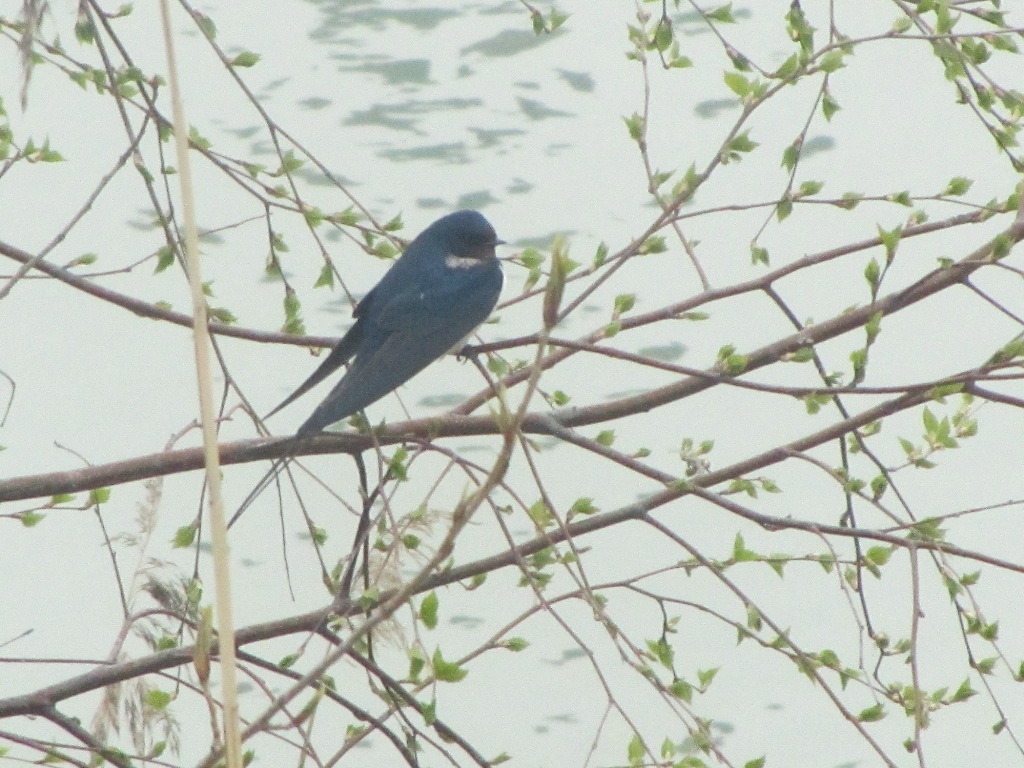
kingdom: Animalia
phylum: Chordata
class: Aves
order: Passeriformes
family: Hirundinidae
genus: Hirundo
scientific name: Hirundo rustica
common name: Barn swallow
